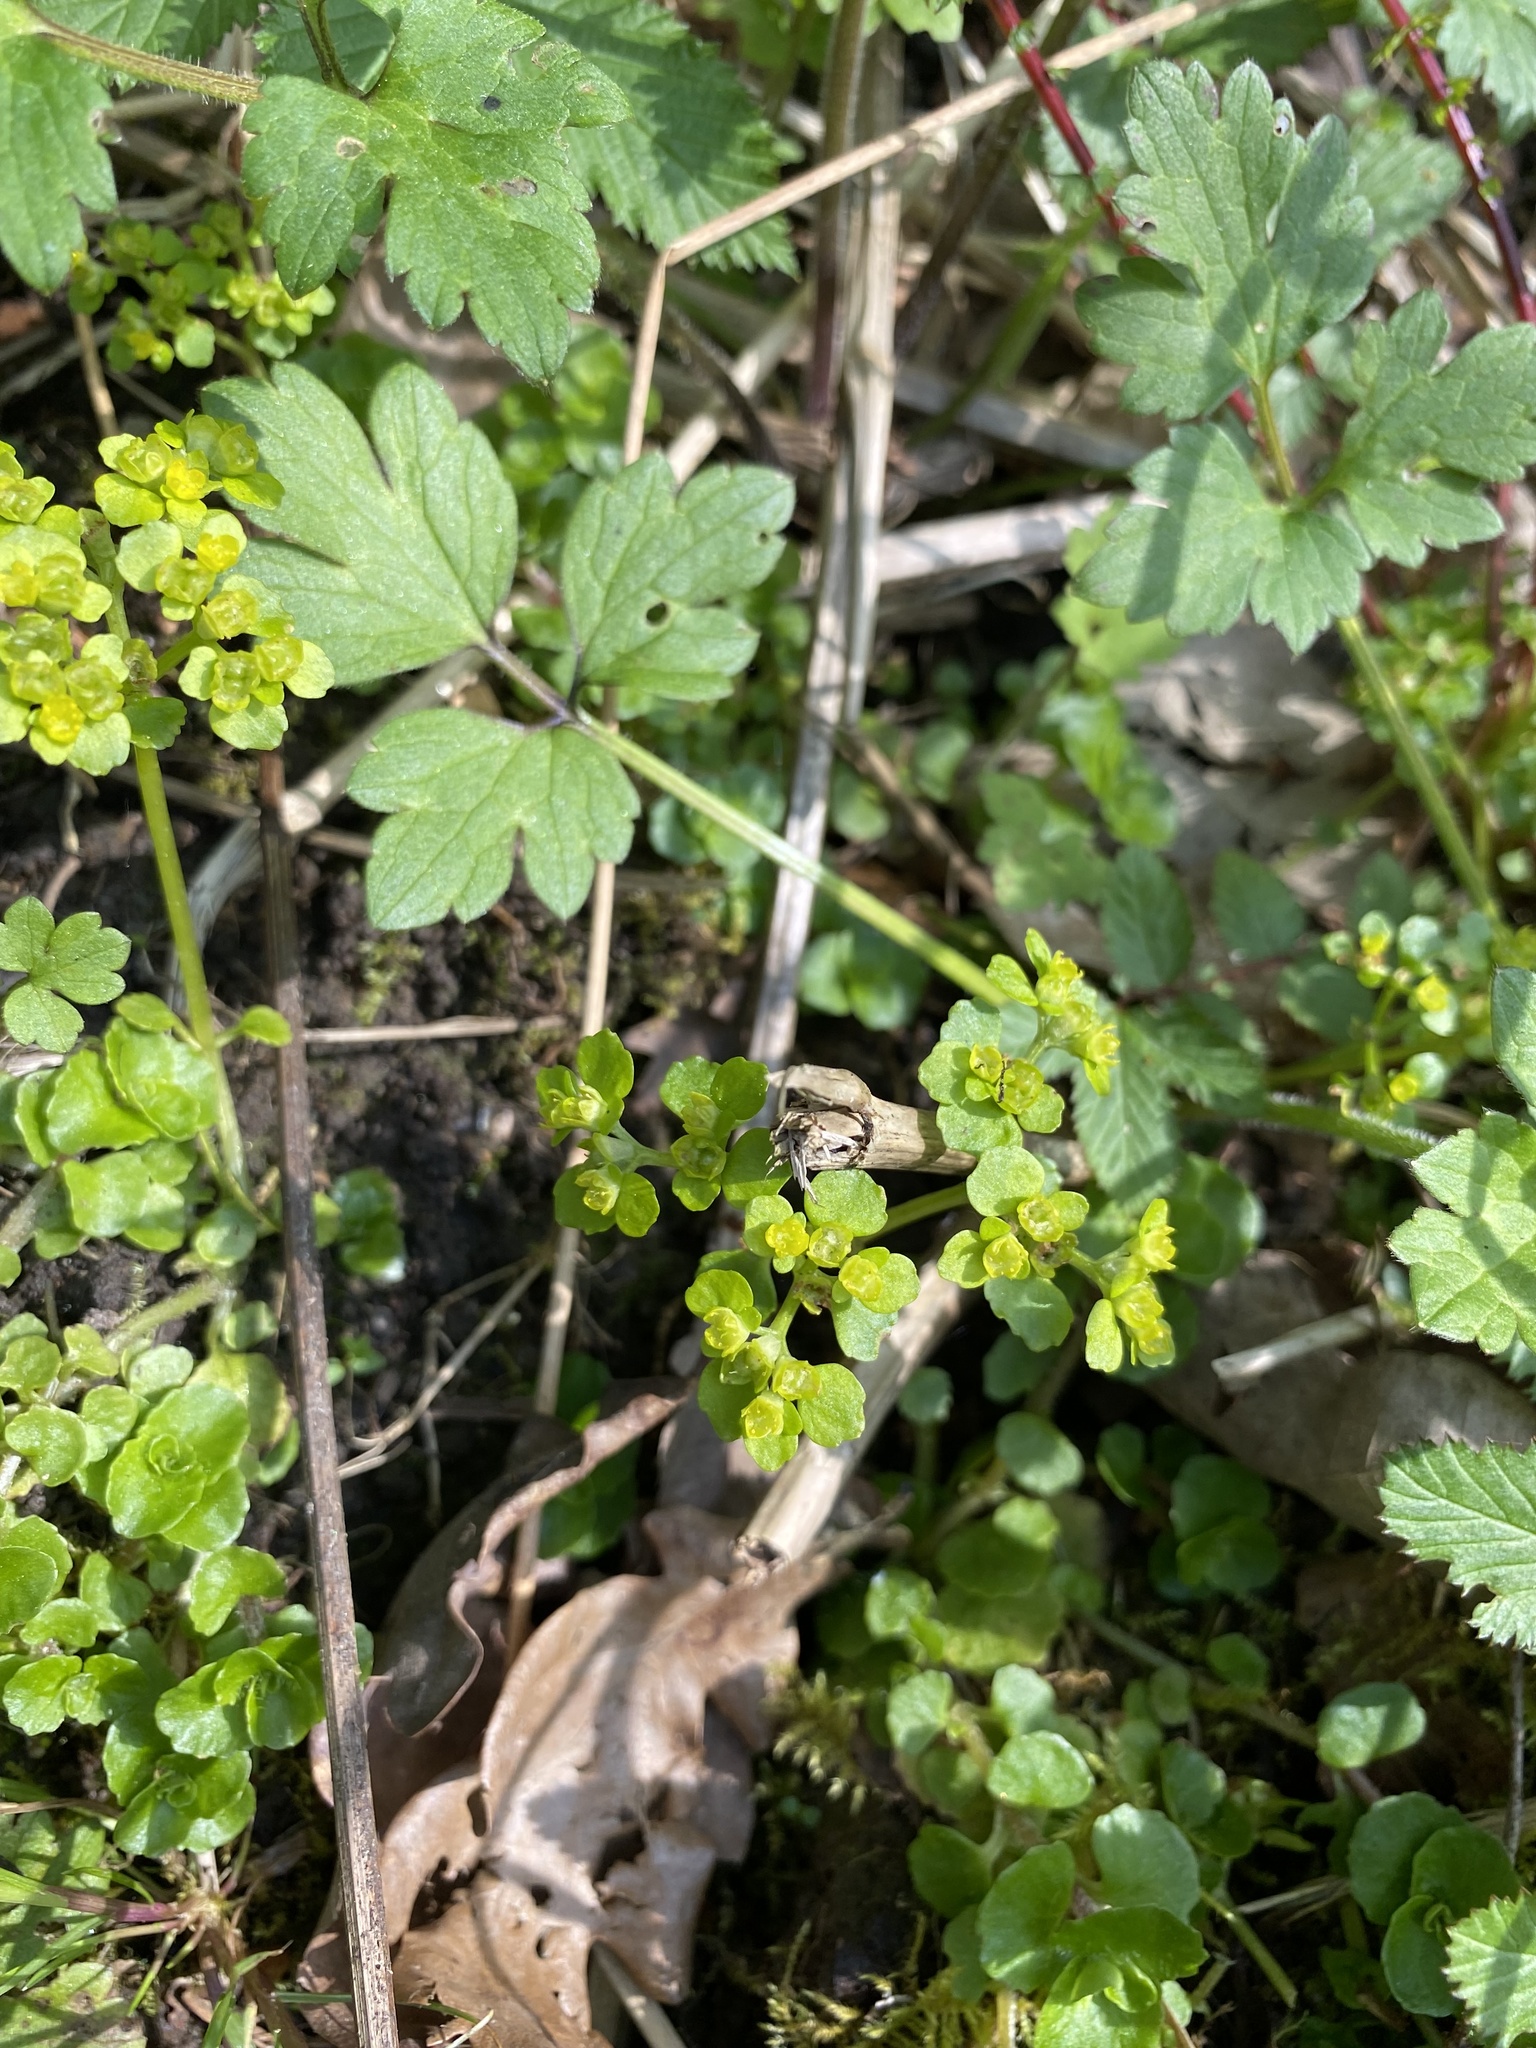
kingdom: Plantae
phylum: Tracheophyta
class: Magnoliopsida
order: Saxifragales
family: Saxifragaceae
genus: Chrysosplenium
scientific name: Chrysosplenium oppositifolium
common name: Opposite-leaved golden-saxifrage
